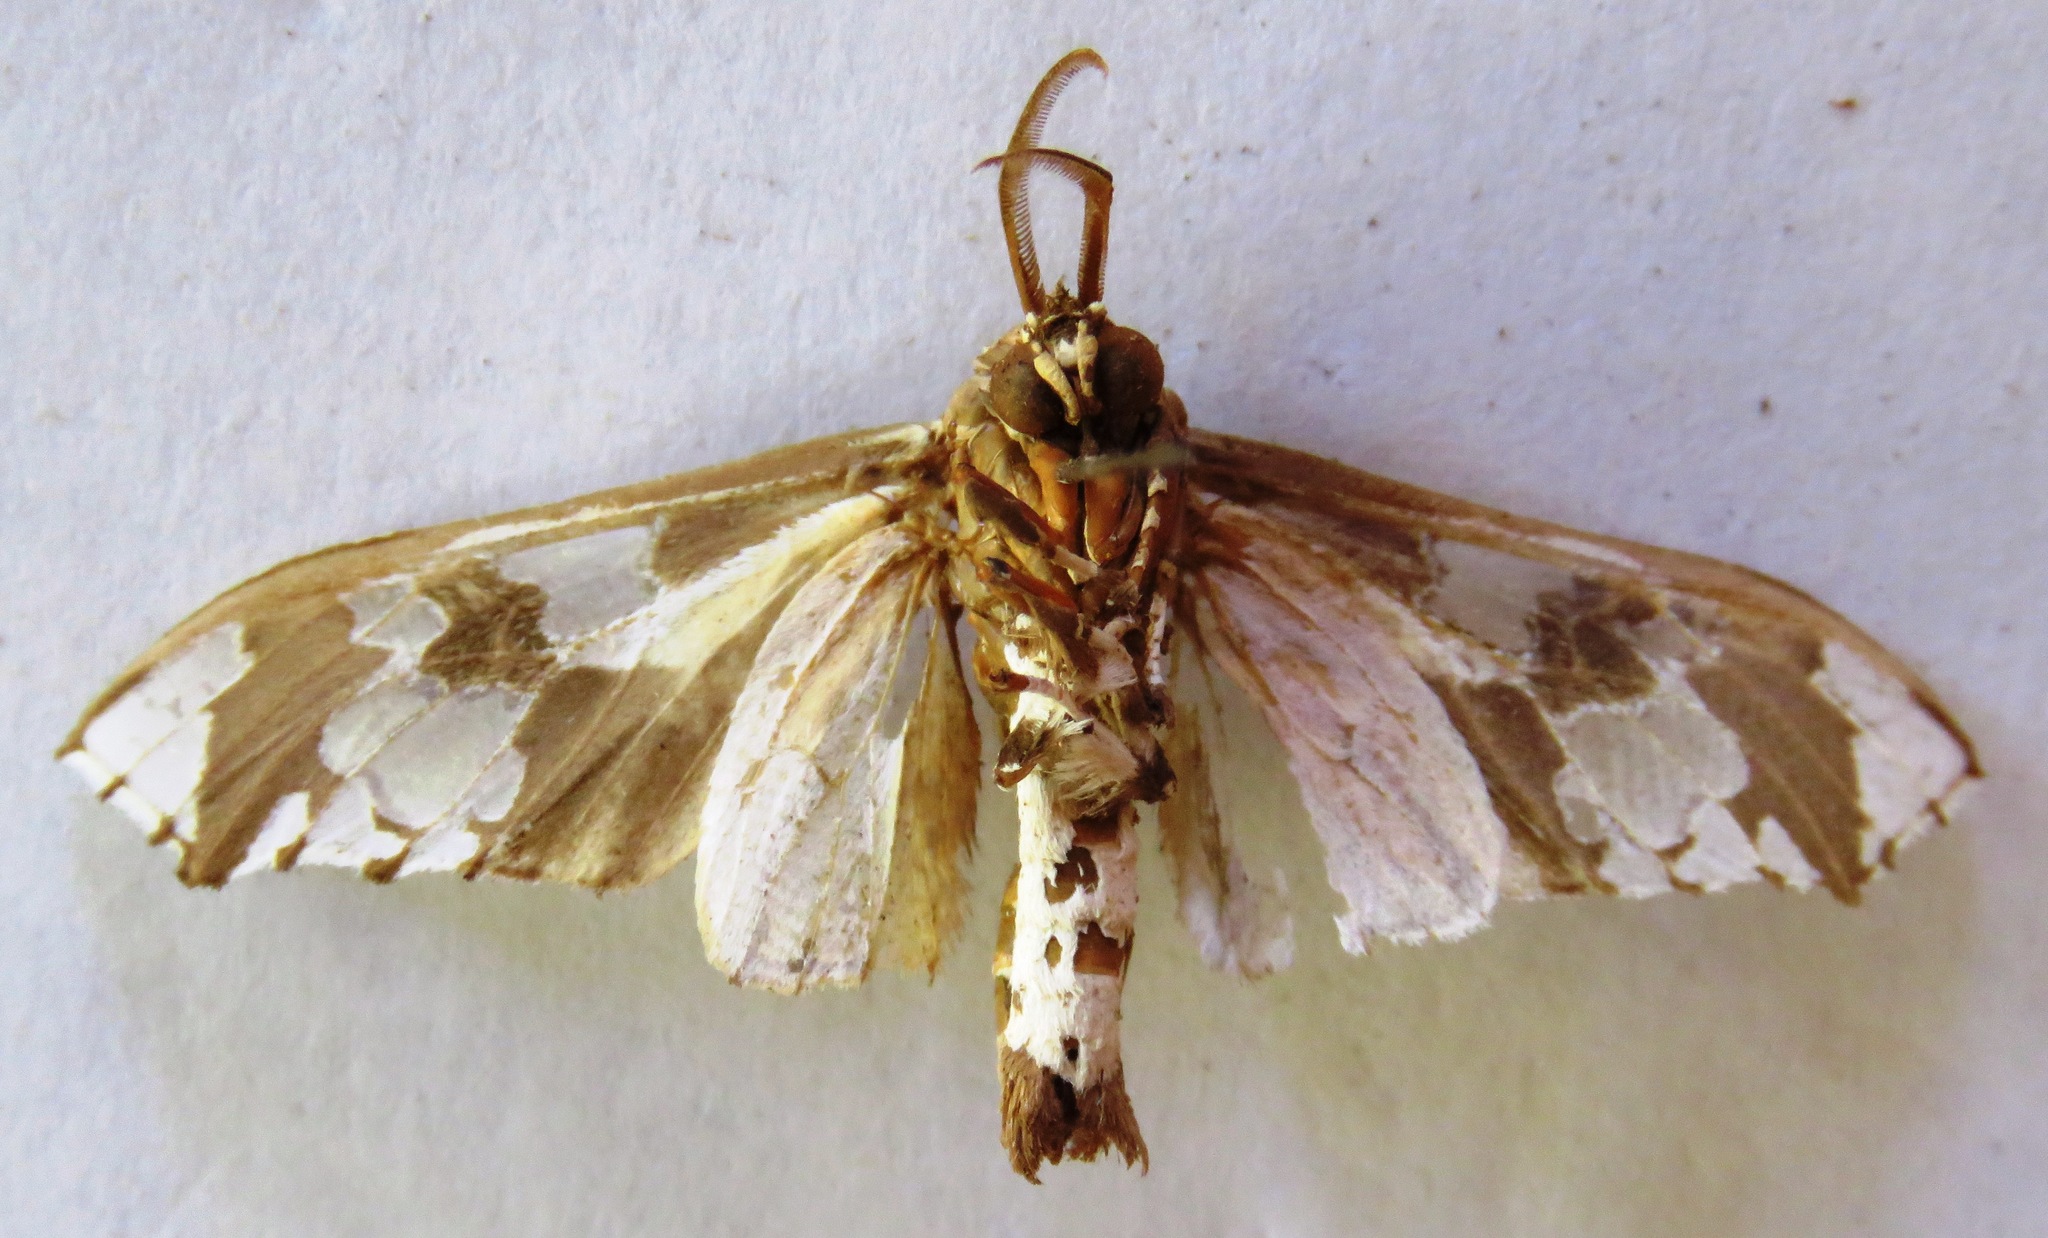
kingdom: Animalia
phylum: Arthropoda
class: Insecta
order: Lepidoptera
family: Erebidae
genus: Parathyris
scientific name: Parathyris
